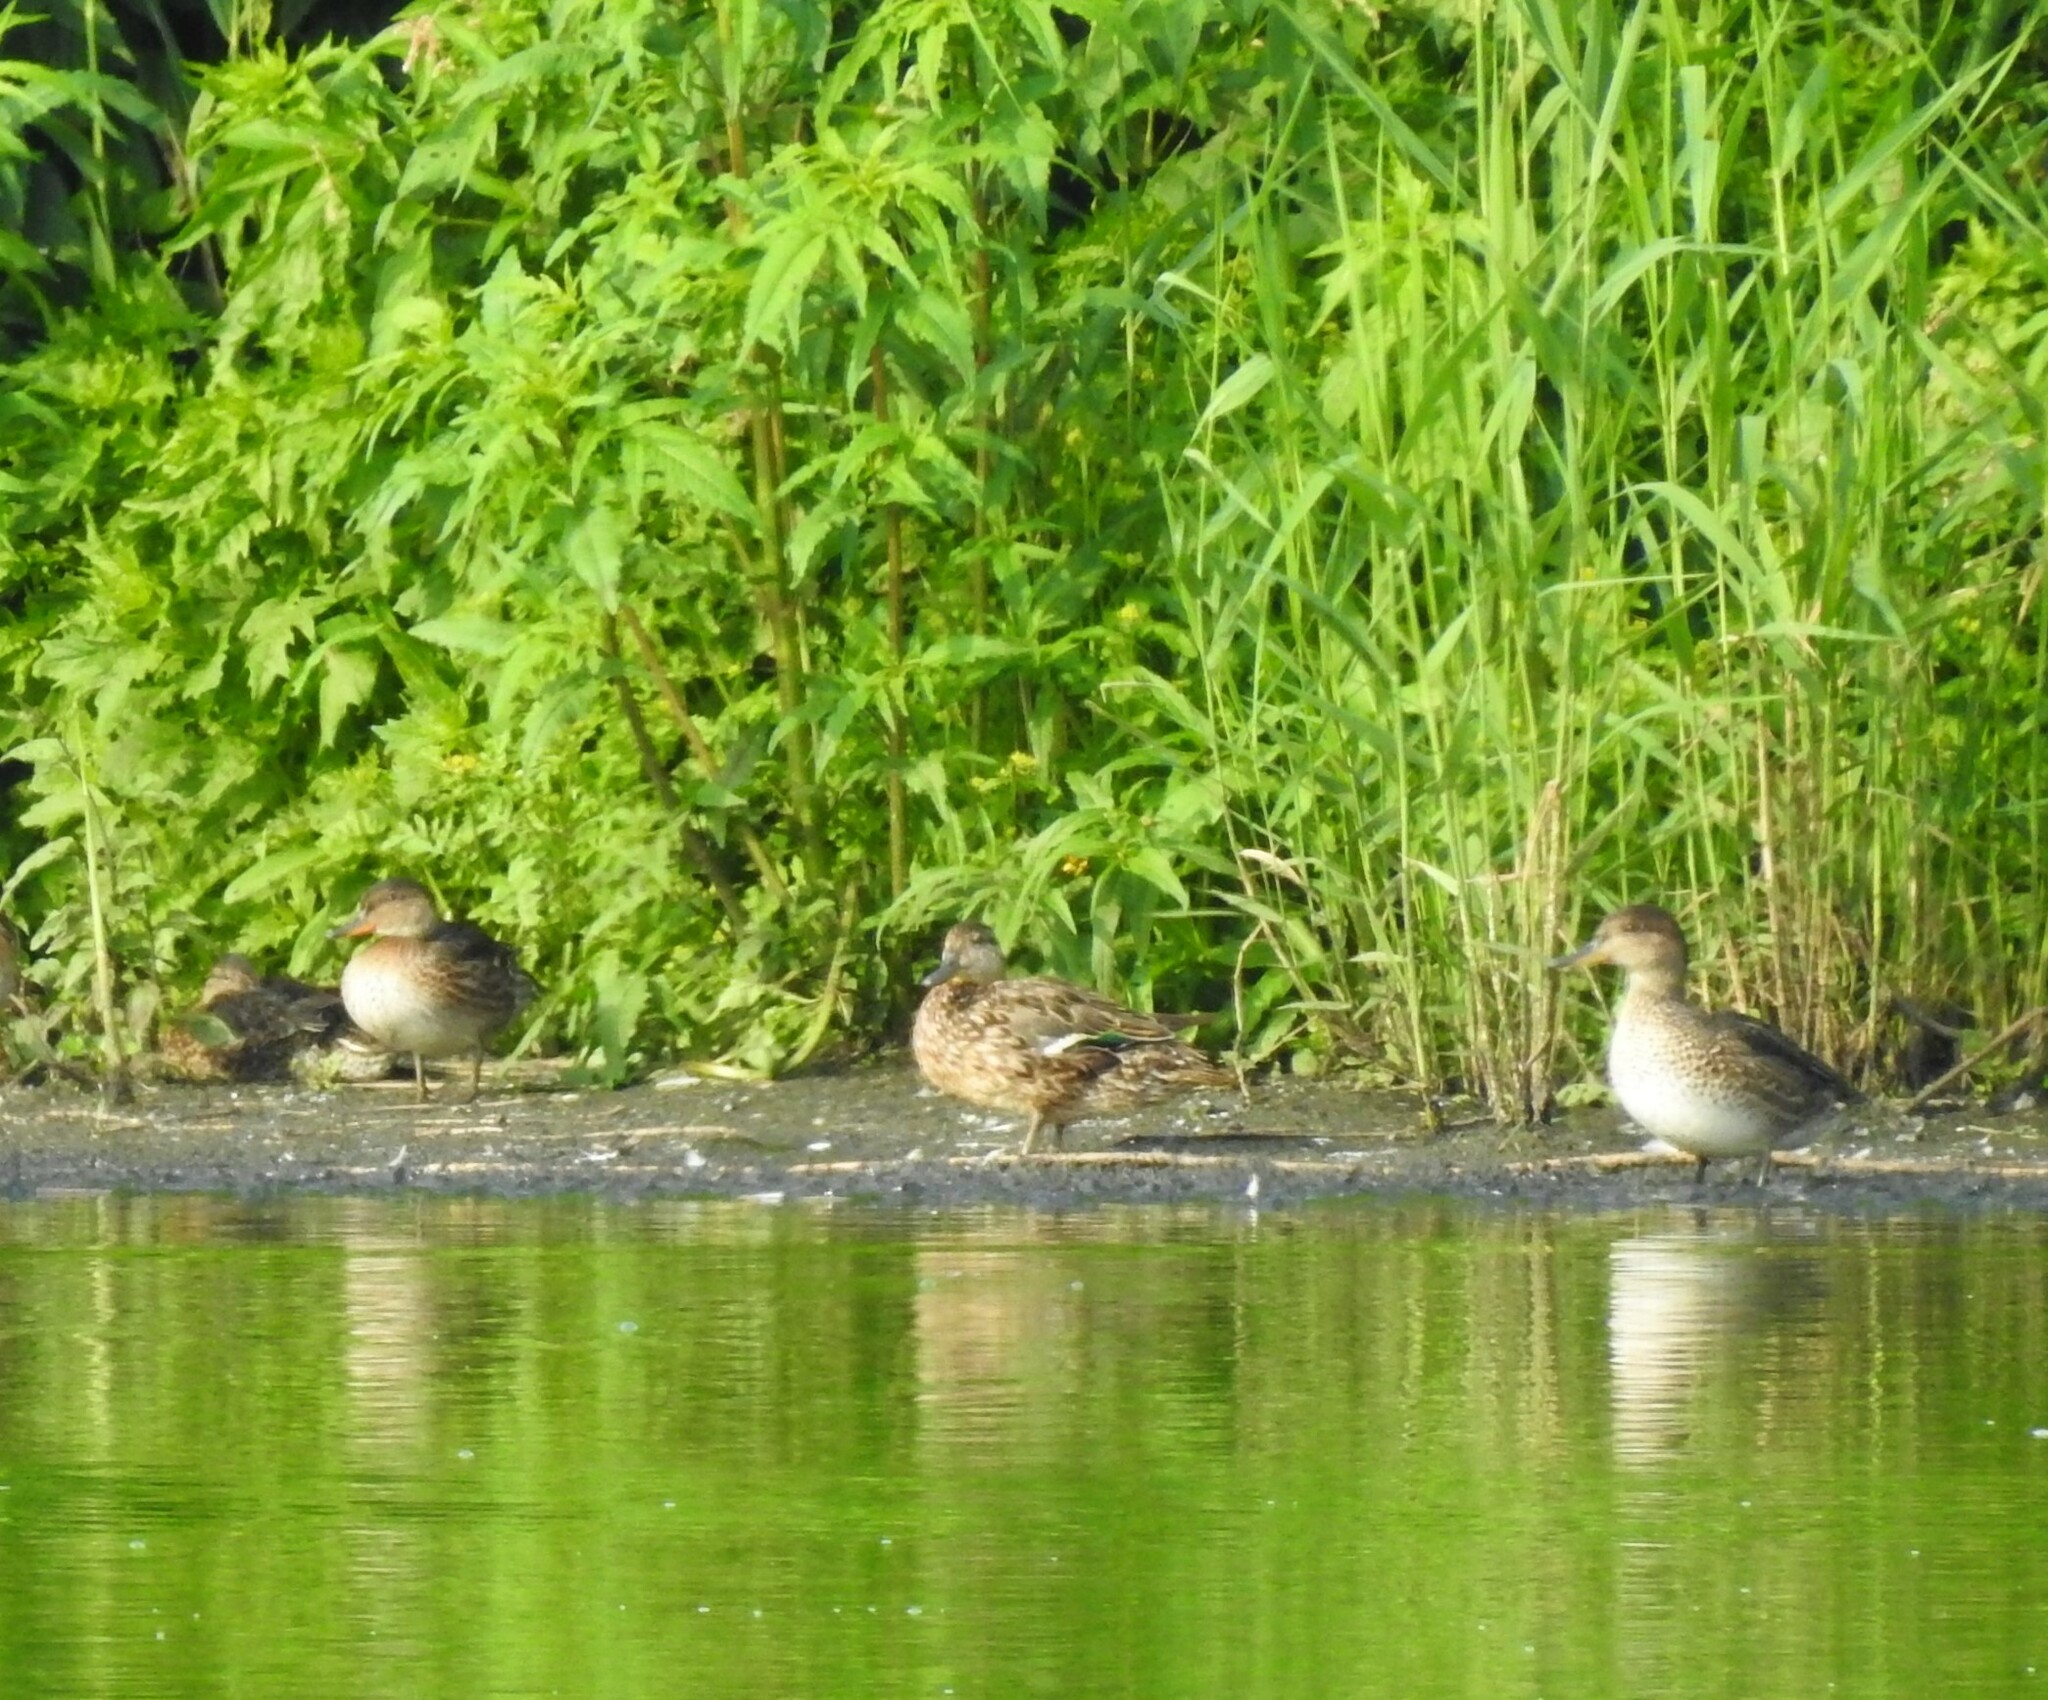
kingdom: Animalia
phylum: Chordata
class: Aves
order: Anseriformes
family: Anatidae
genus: Anas
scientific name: Anas crecca
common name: Eurasian teal
